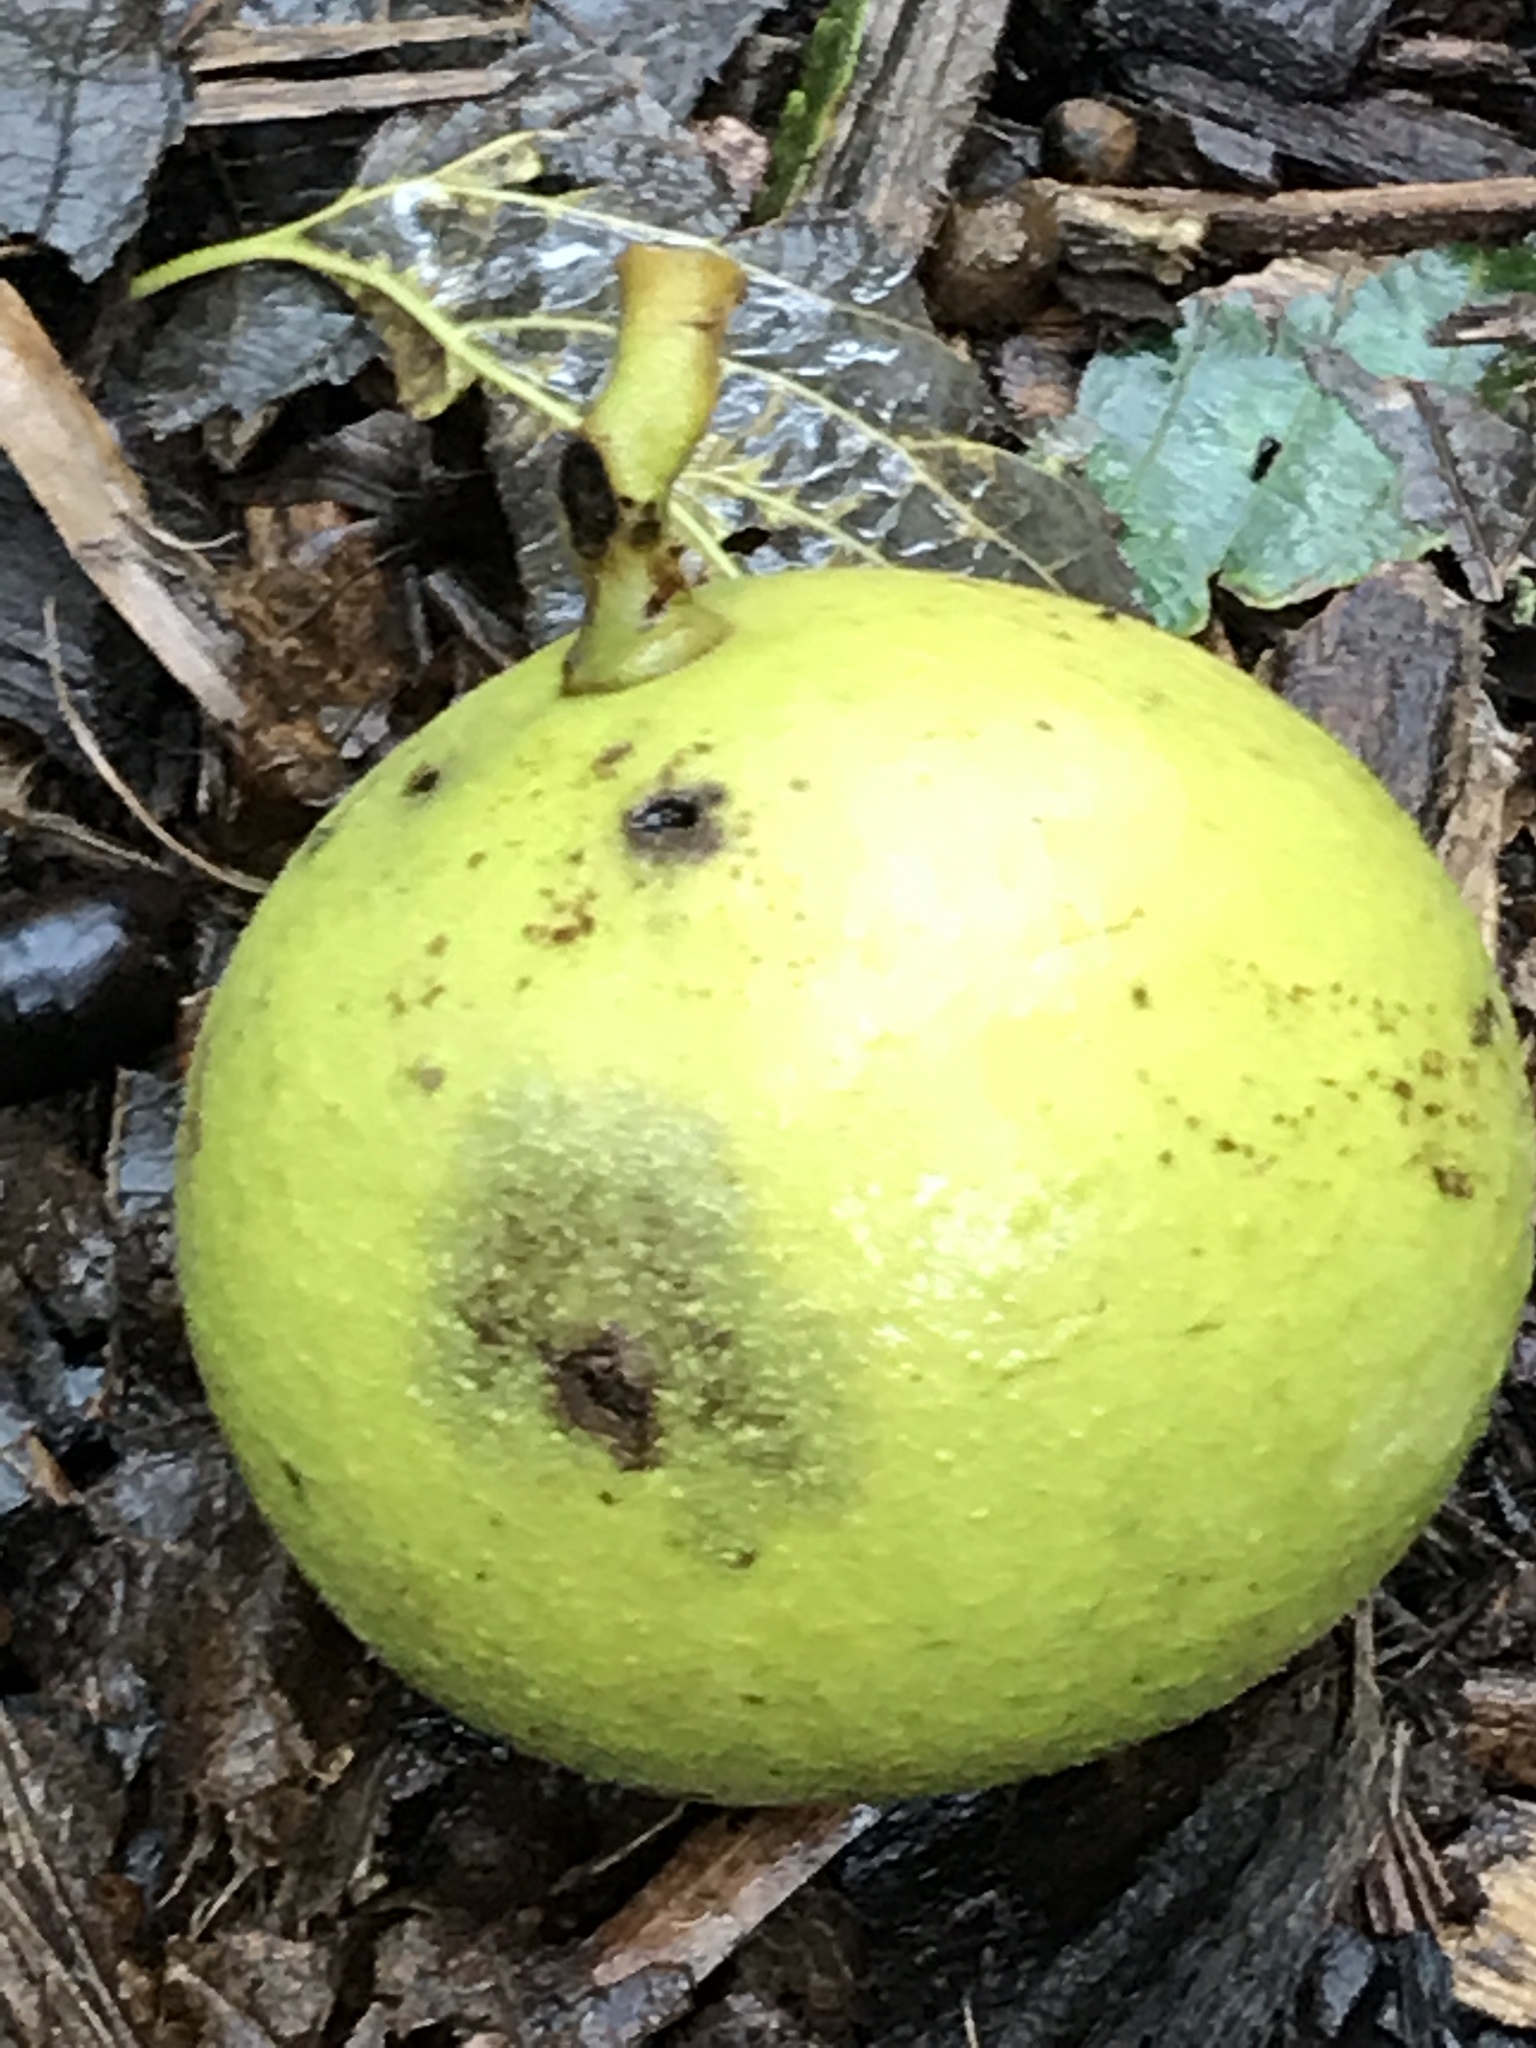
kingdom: Plantae
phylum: Tracheophyta
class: Magnoliopsida
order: Fagales
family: Juglandaceae
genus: Juglans
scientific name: Juglans nigra
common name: Black walnut
